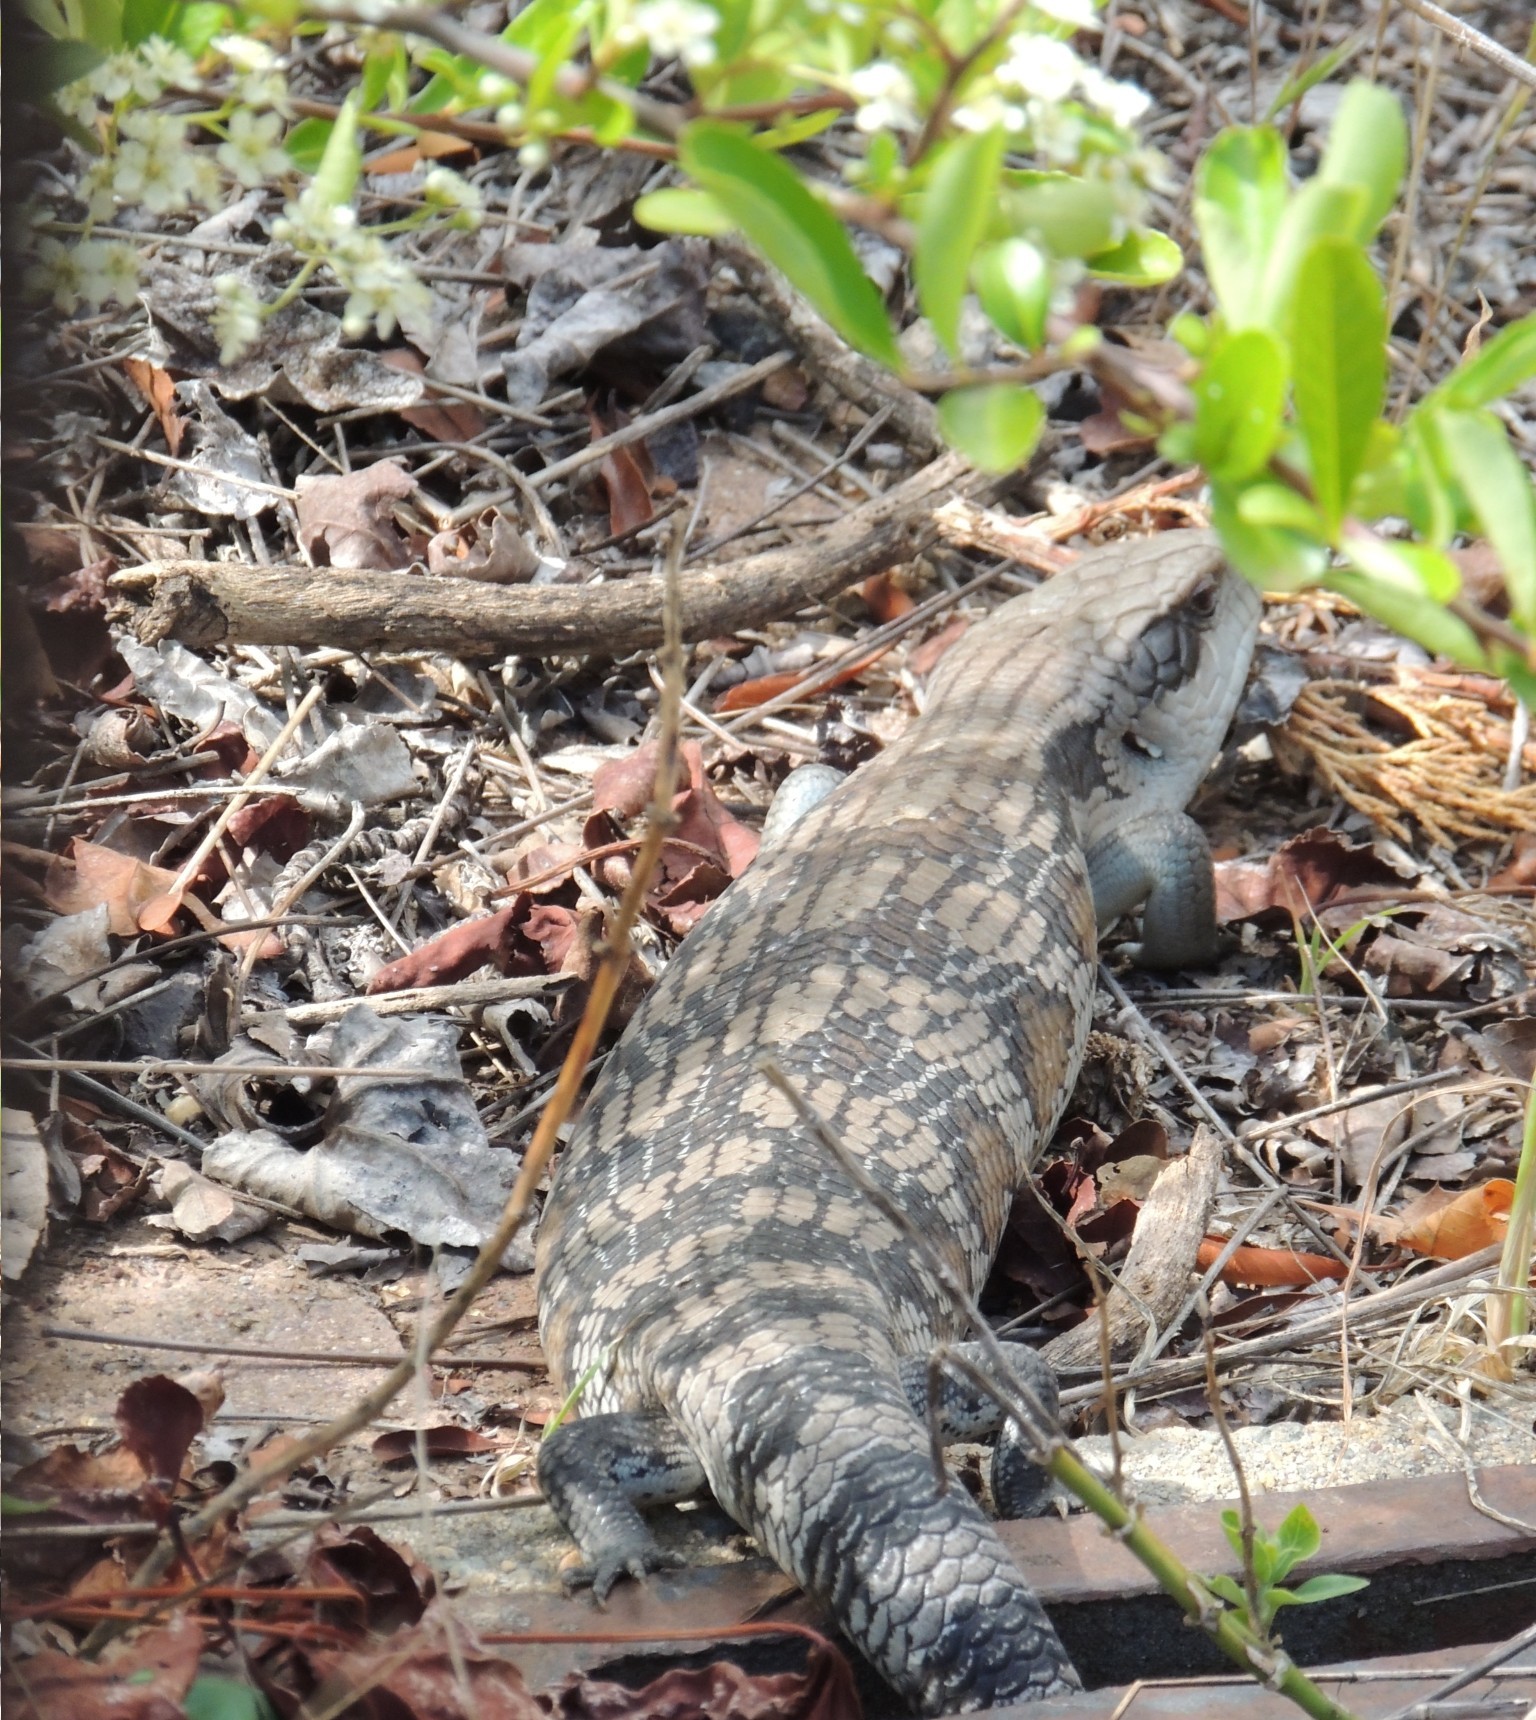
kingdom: Animalia
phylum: Chordata
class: Squamata
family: Scincidae
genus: Tiliqua
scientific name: Tiliqua scincoides
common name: Common bluetongue
